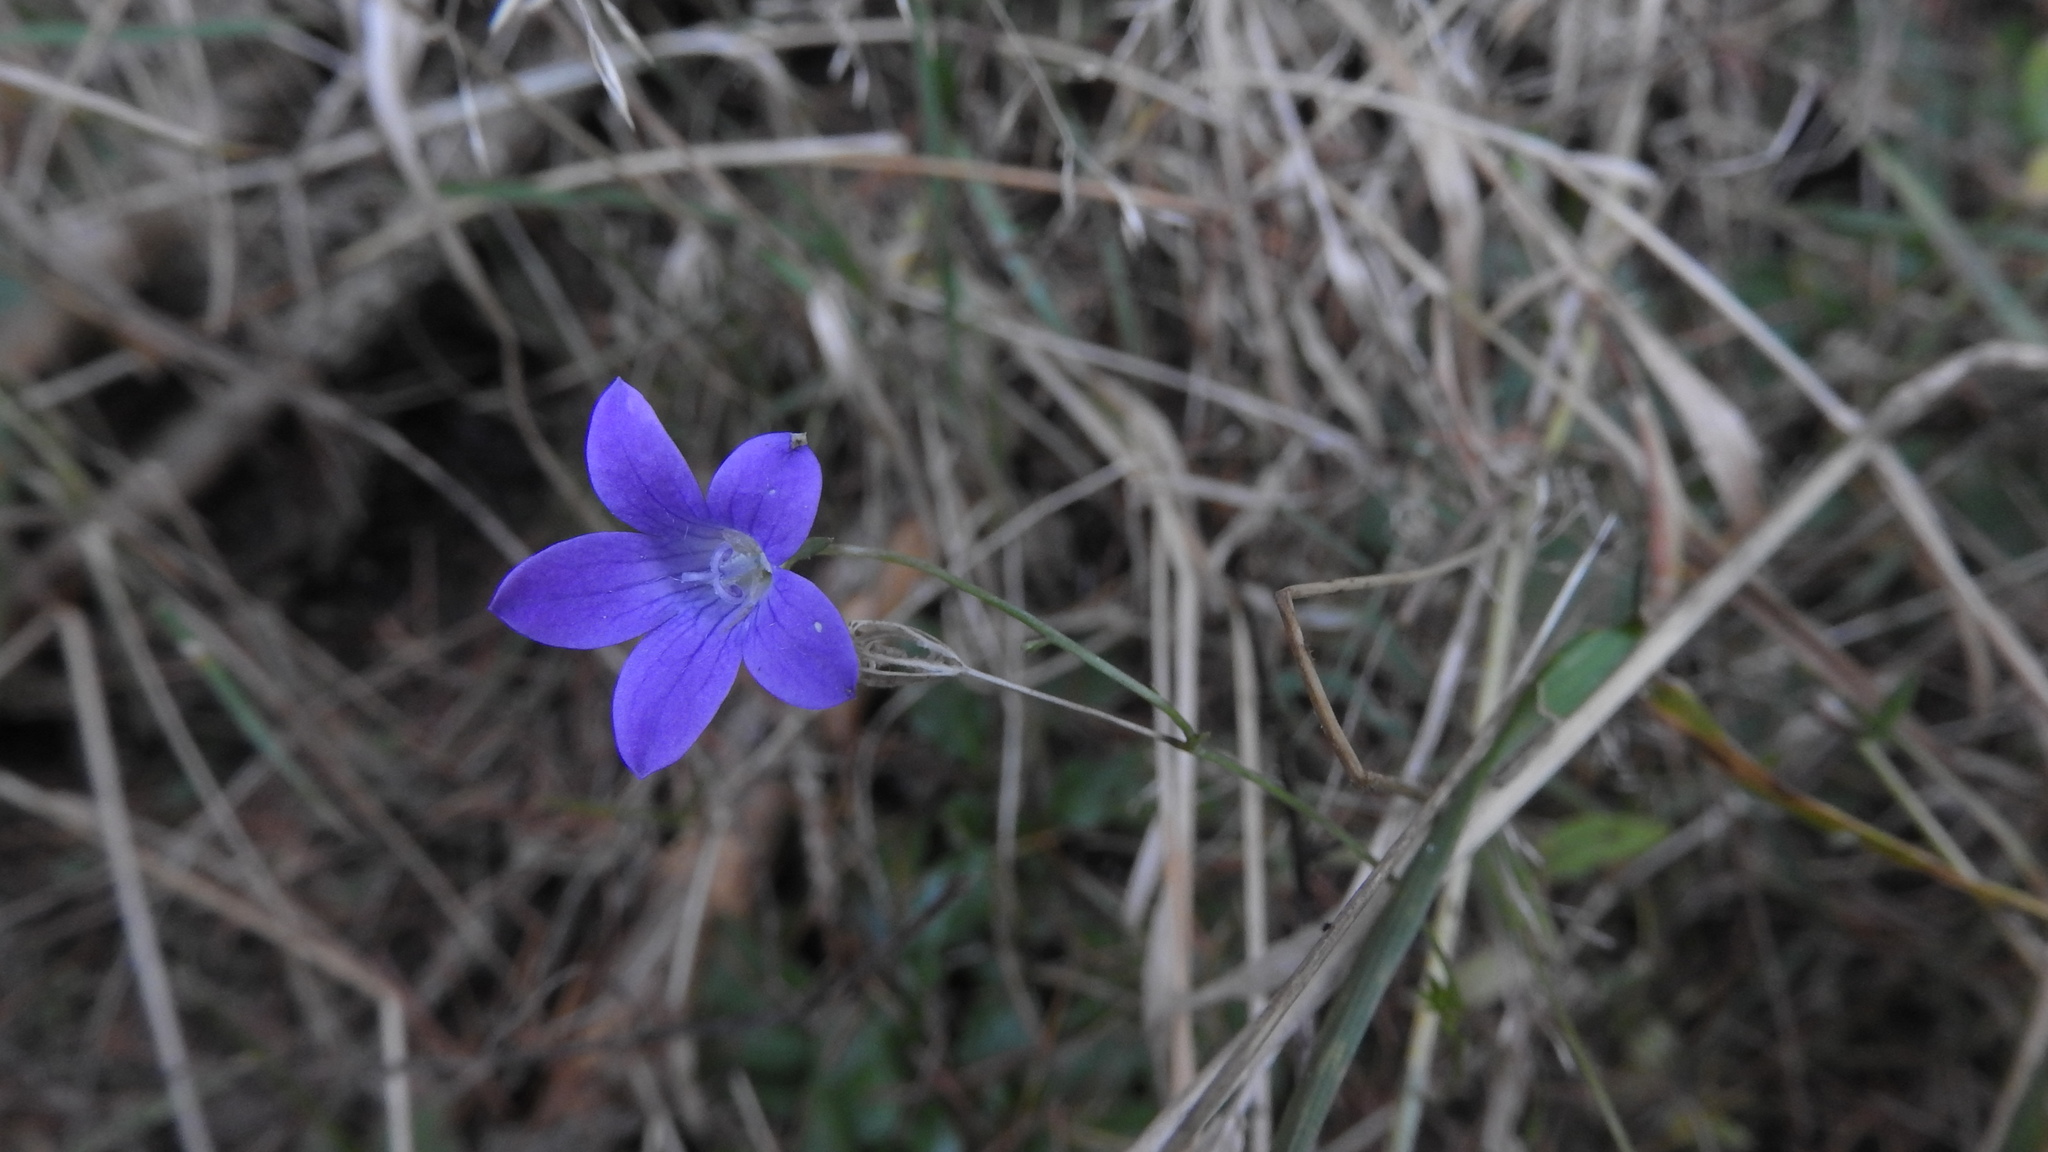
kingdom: Plantae
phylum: Tracheophyta
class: Magnoliopsida
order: Asterales
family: Campanulaceae
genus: Campanula
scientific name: Campanula patula
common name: Spreading bellflower
